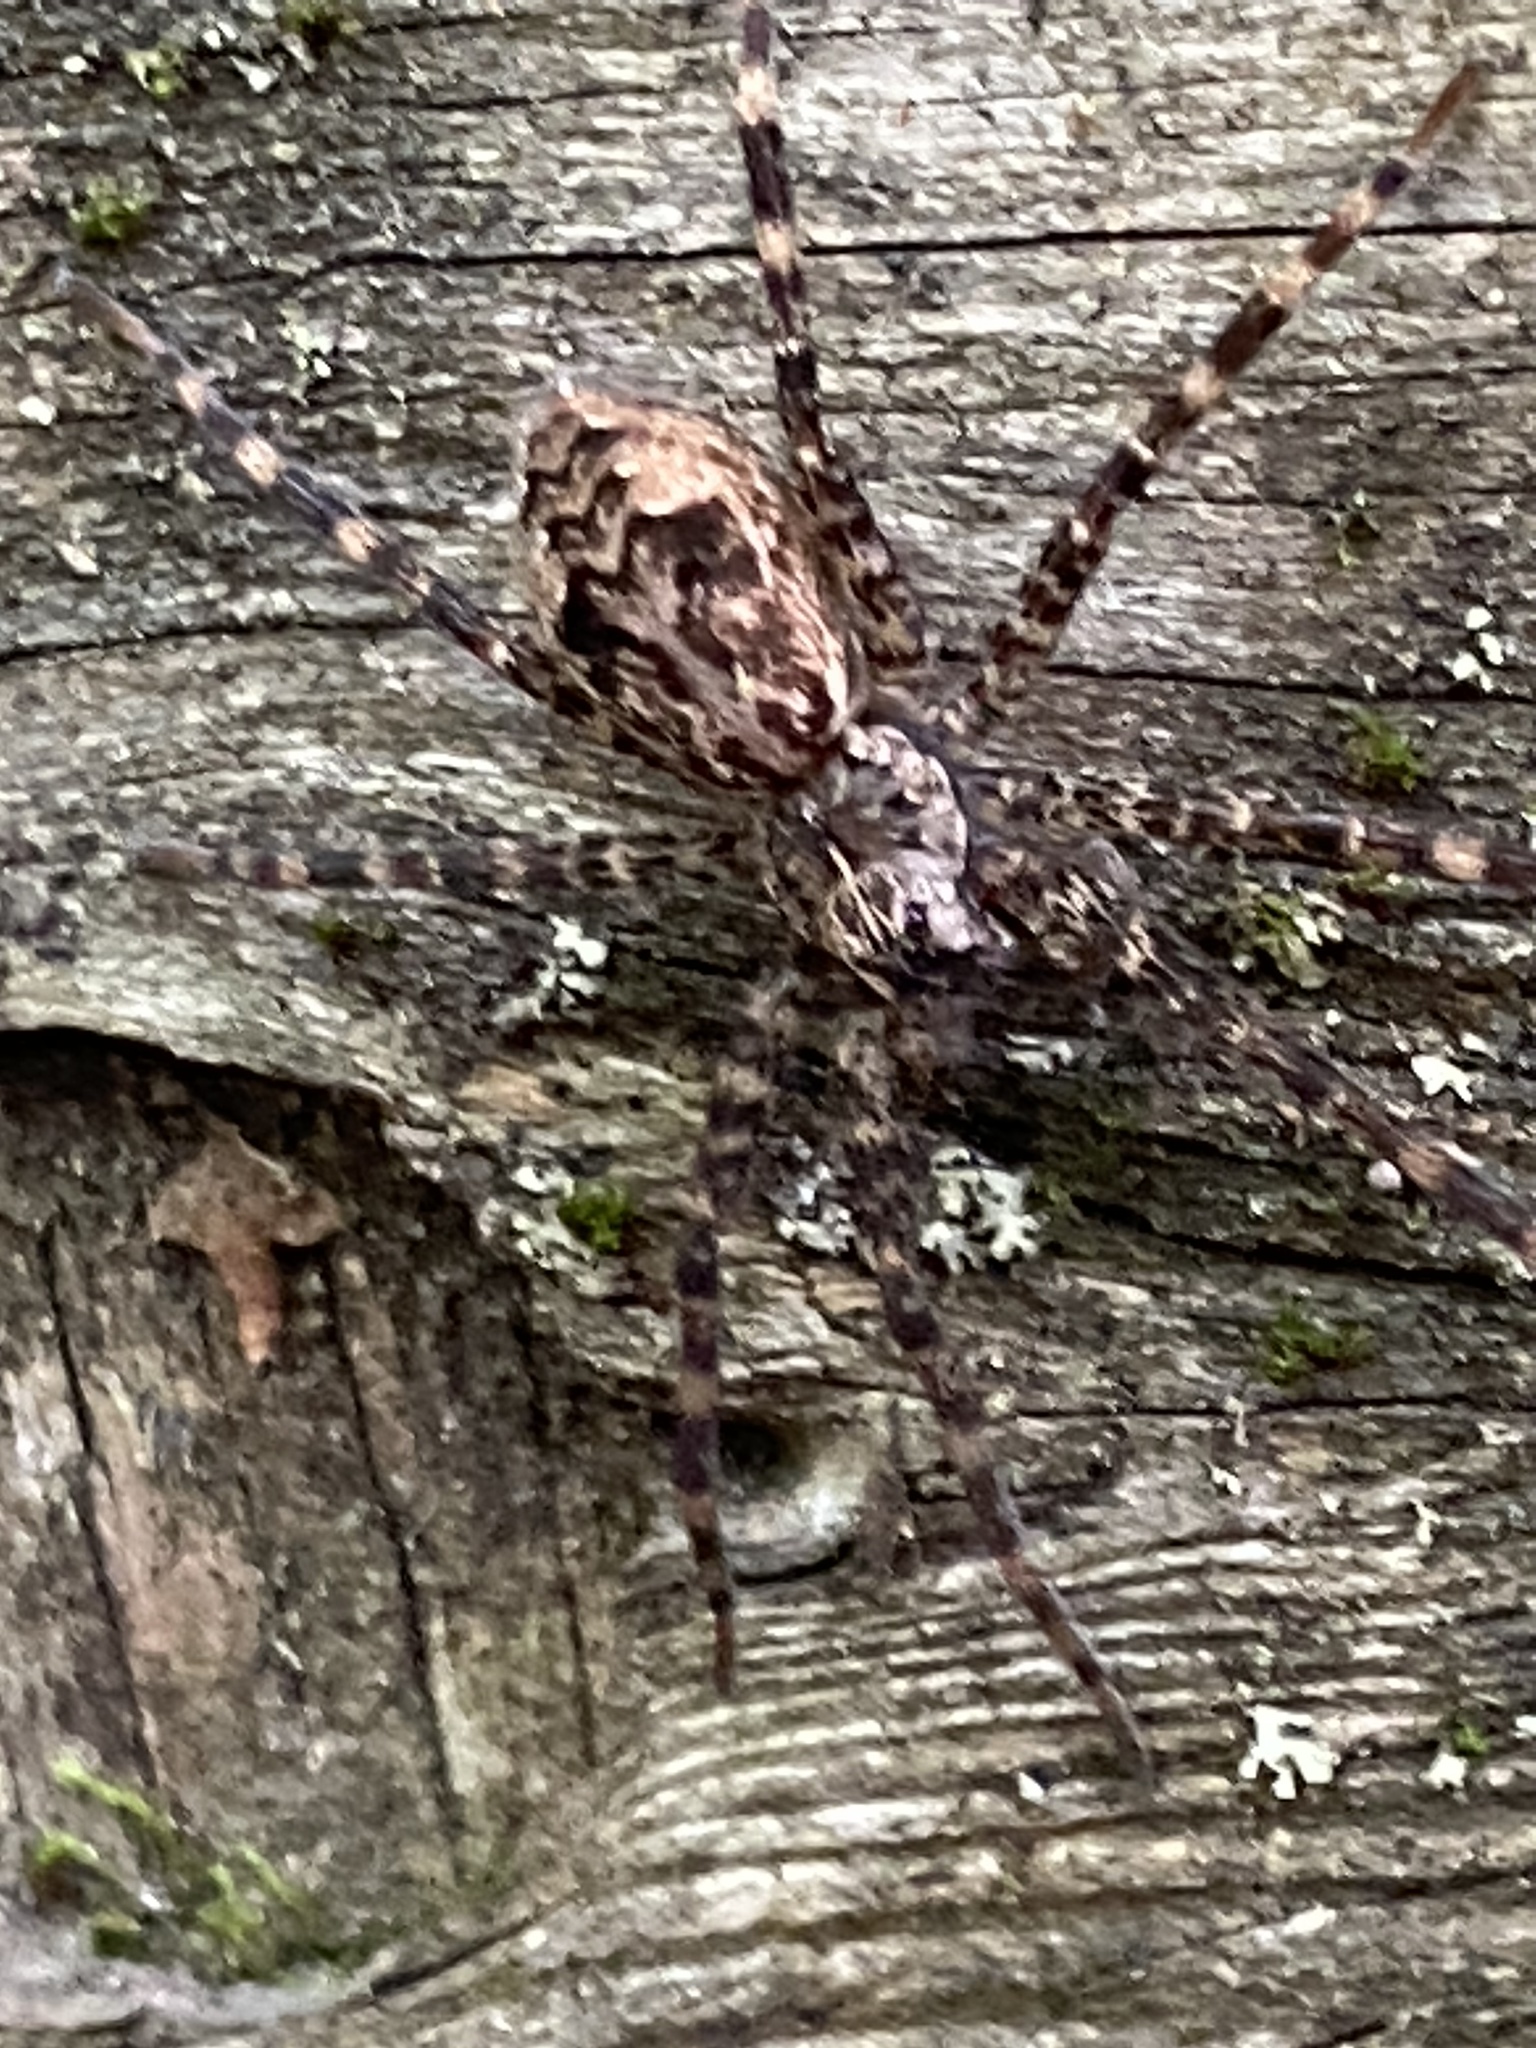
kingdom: Animalia
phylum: Arthropoda
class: Arachnida
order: Araneae
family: Pisauridae
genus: Dolomedes
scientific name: Dolomedes tenebrosus
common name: Dark fishing spider
